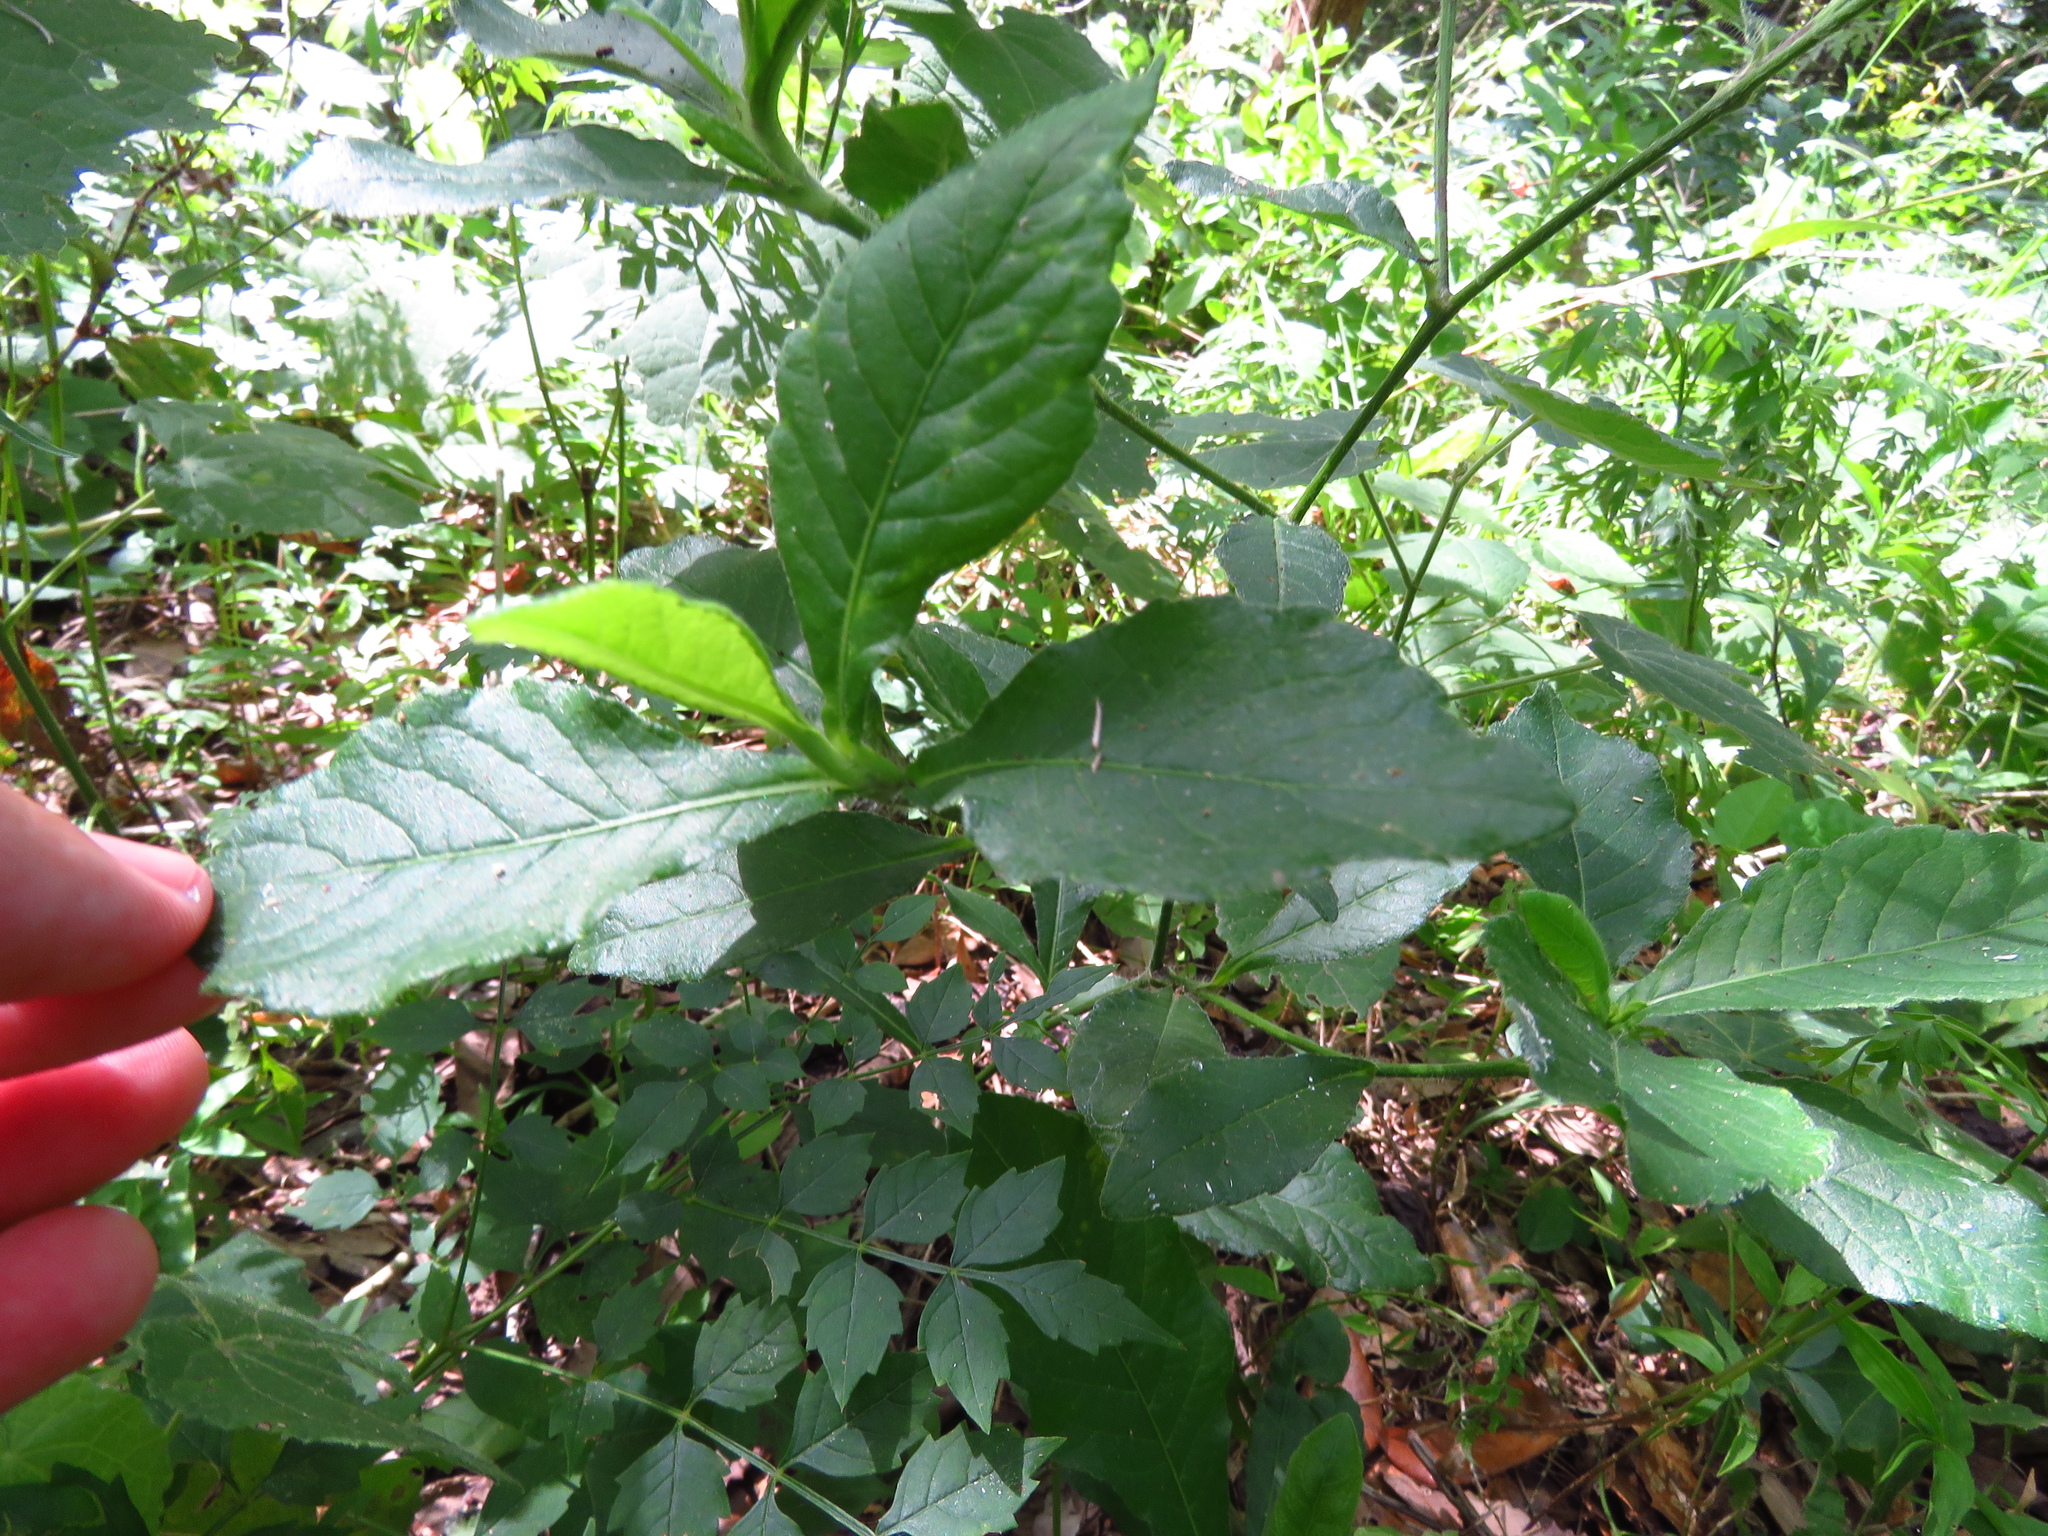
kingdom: Plantae
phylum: Tracheophyta
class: Magnoliopsida
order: Asterales
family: Asteraceae
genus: Elephantopus
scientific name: Elephantopus carolinianus
